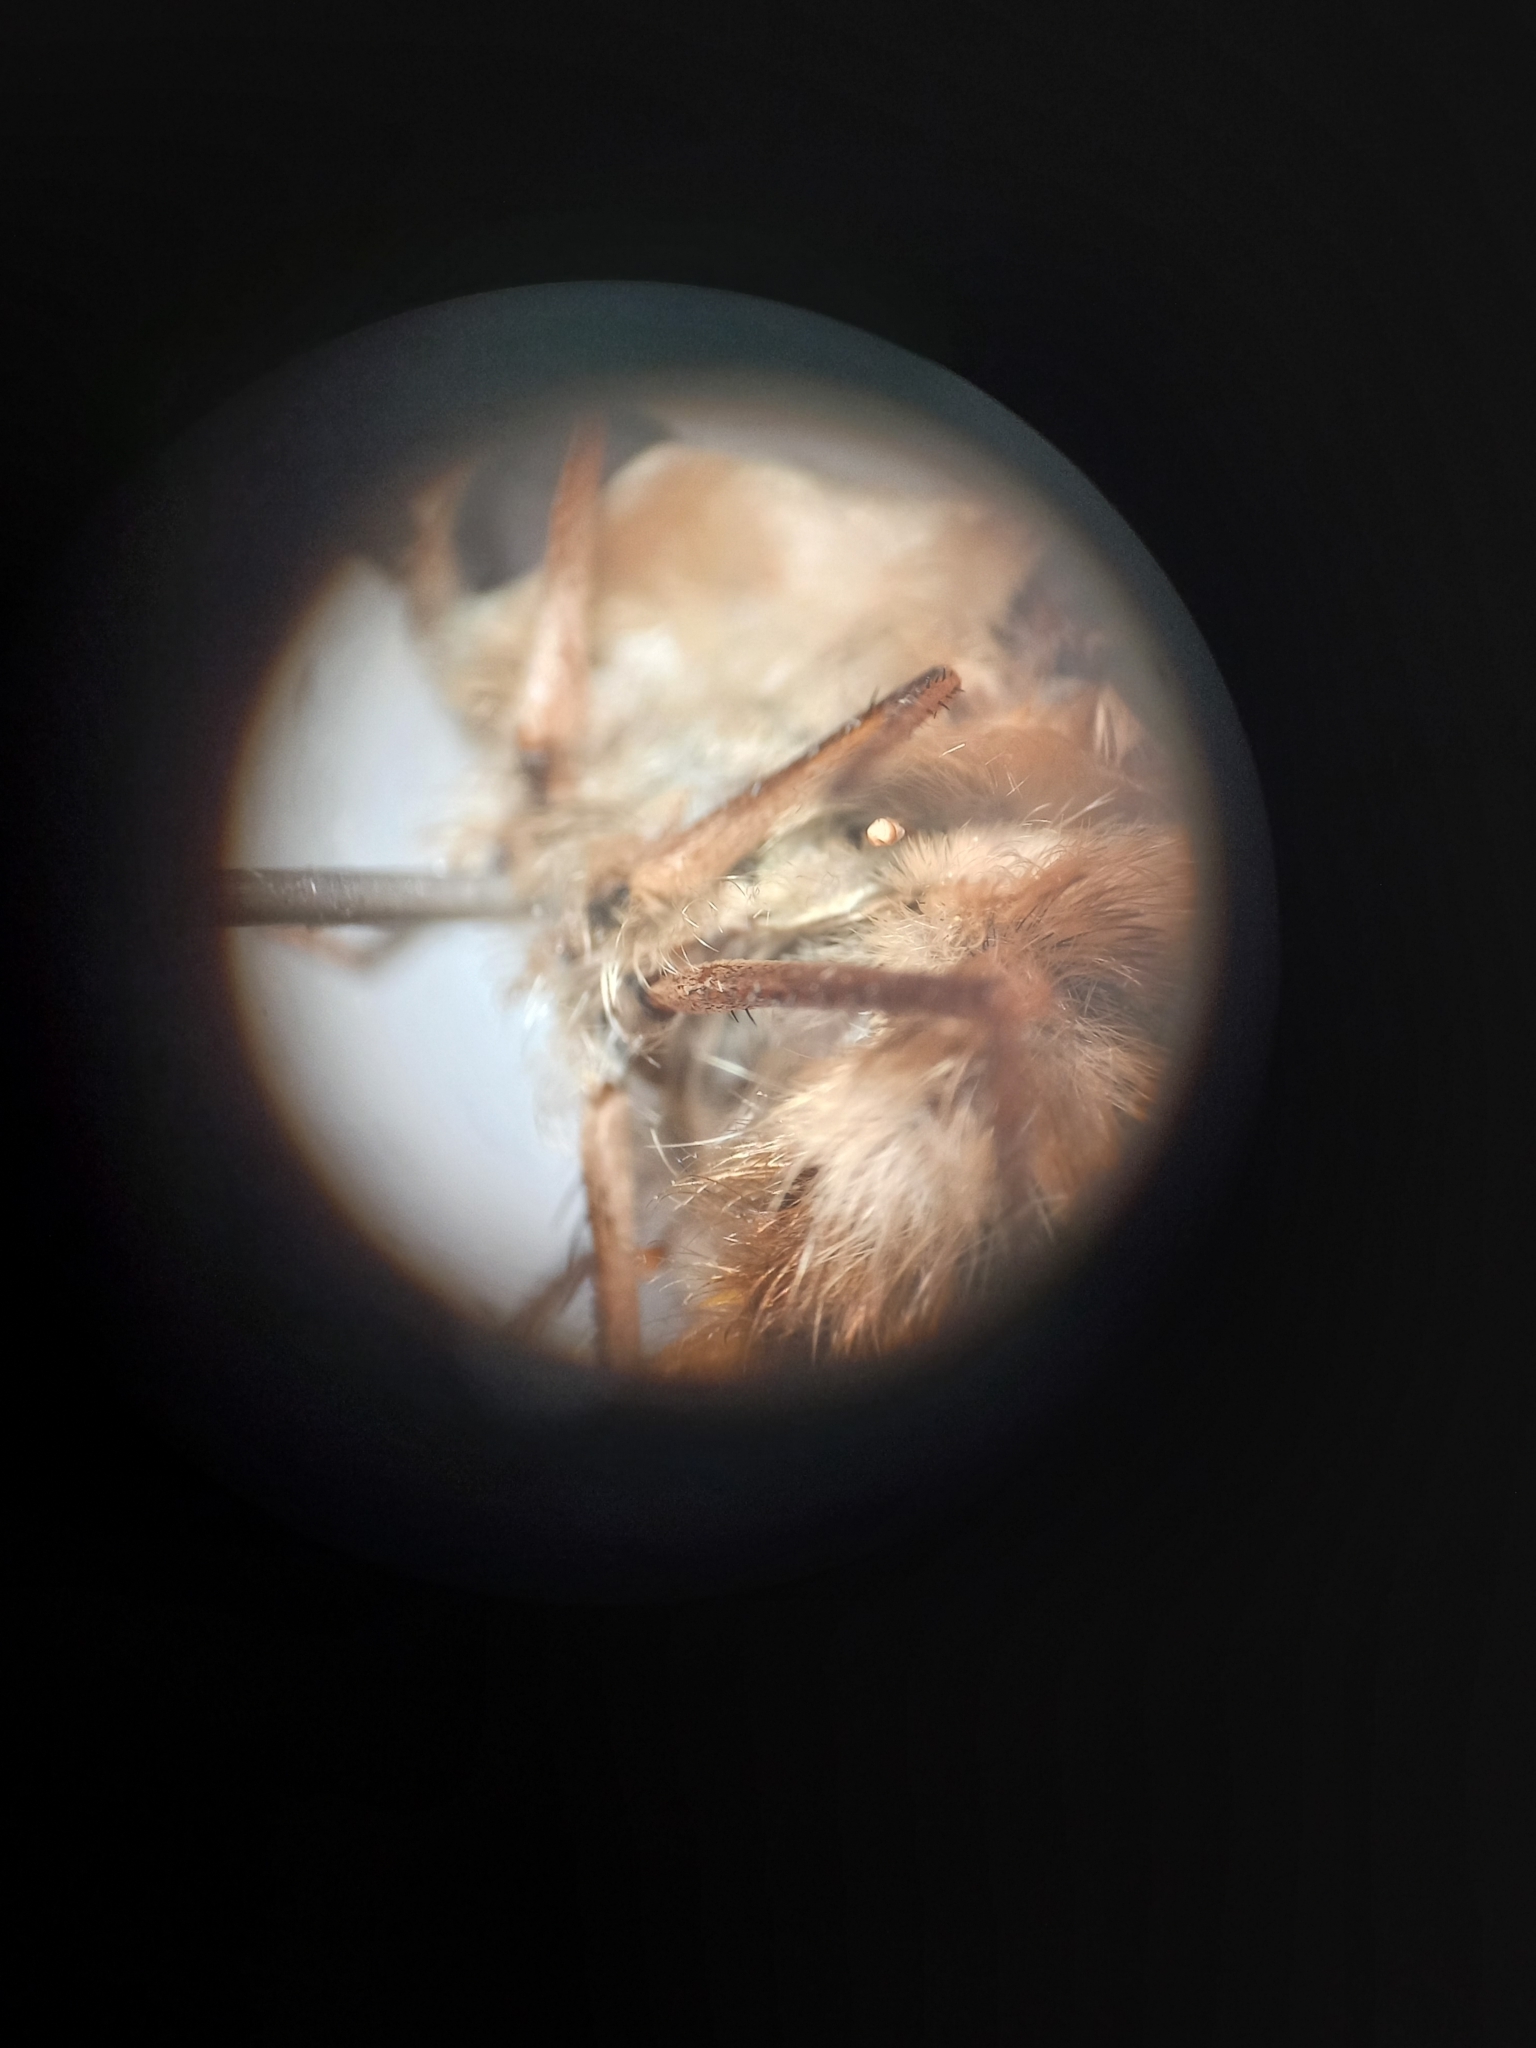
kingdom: Animalia
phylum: Arthropoda
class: Insecta
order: Diptera
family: Bombyliidae
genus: Bombylius
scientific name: Bombylius minor
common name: Heath bee-fly
